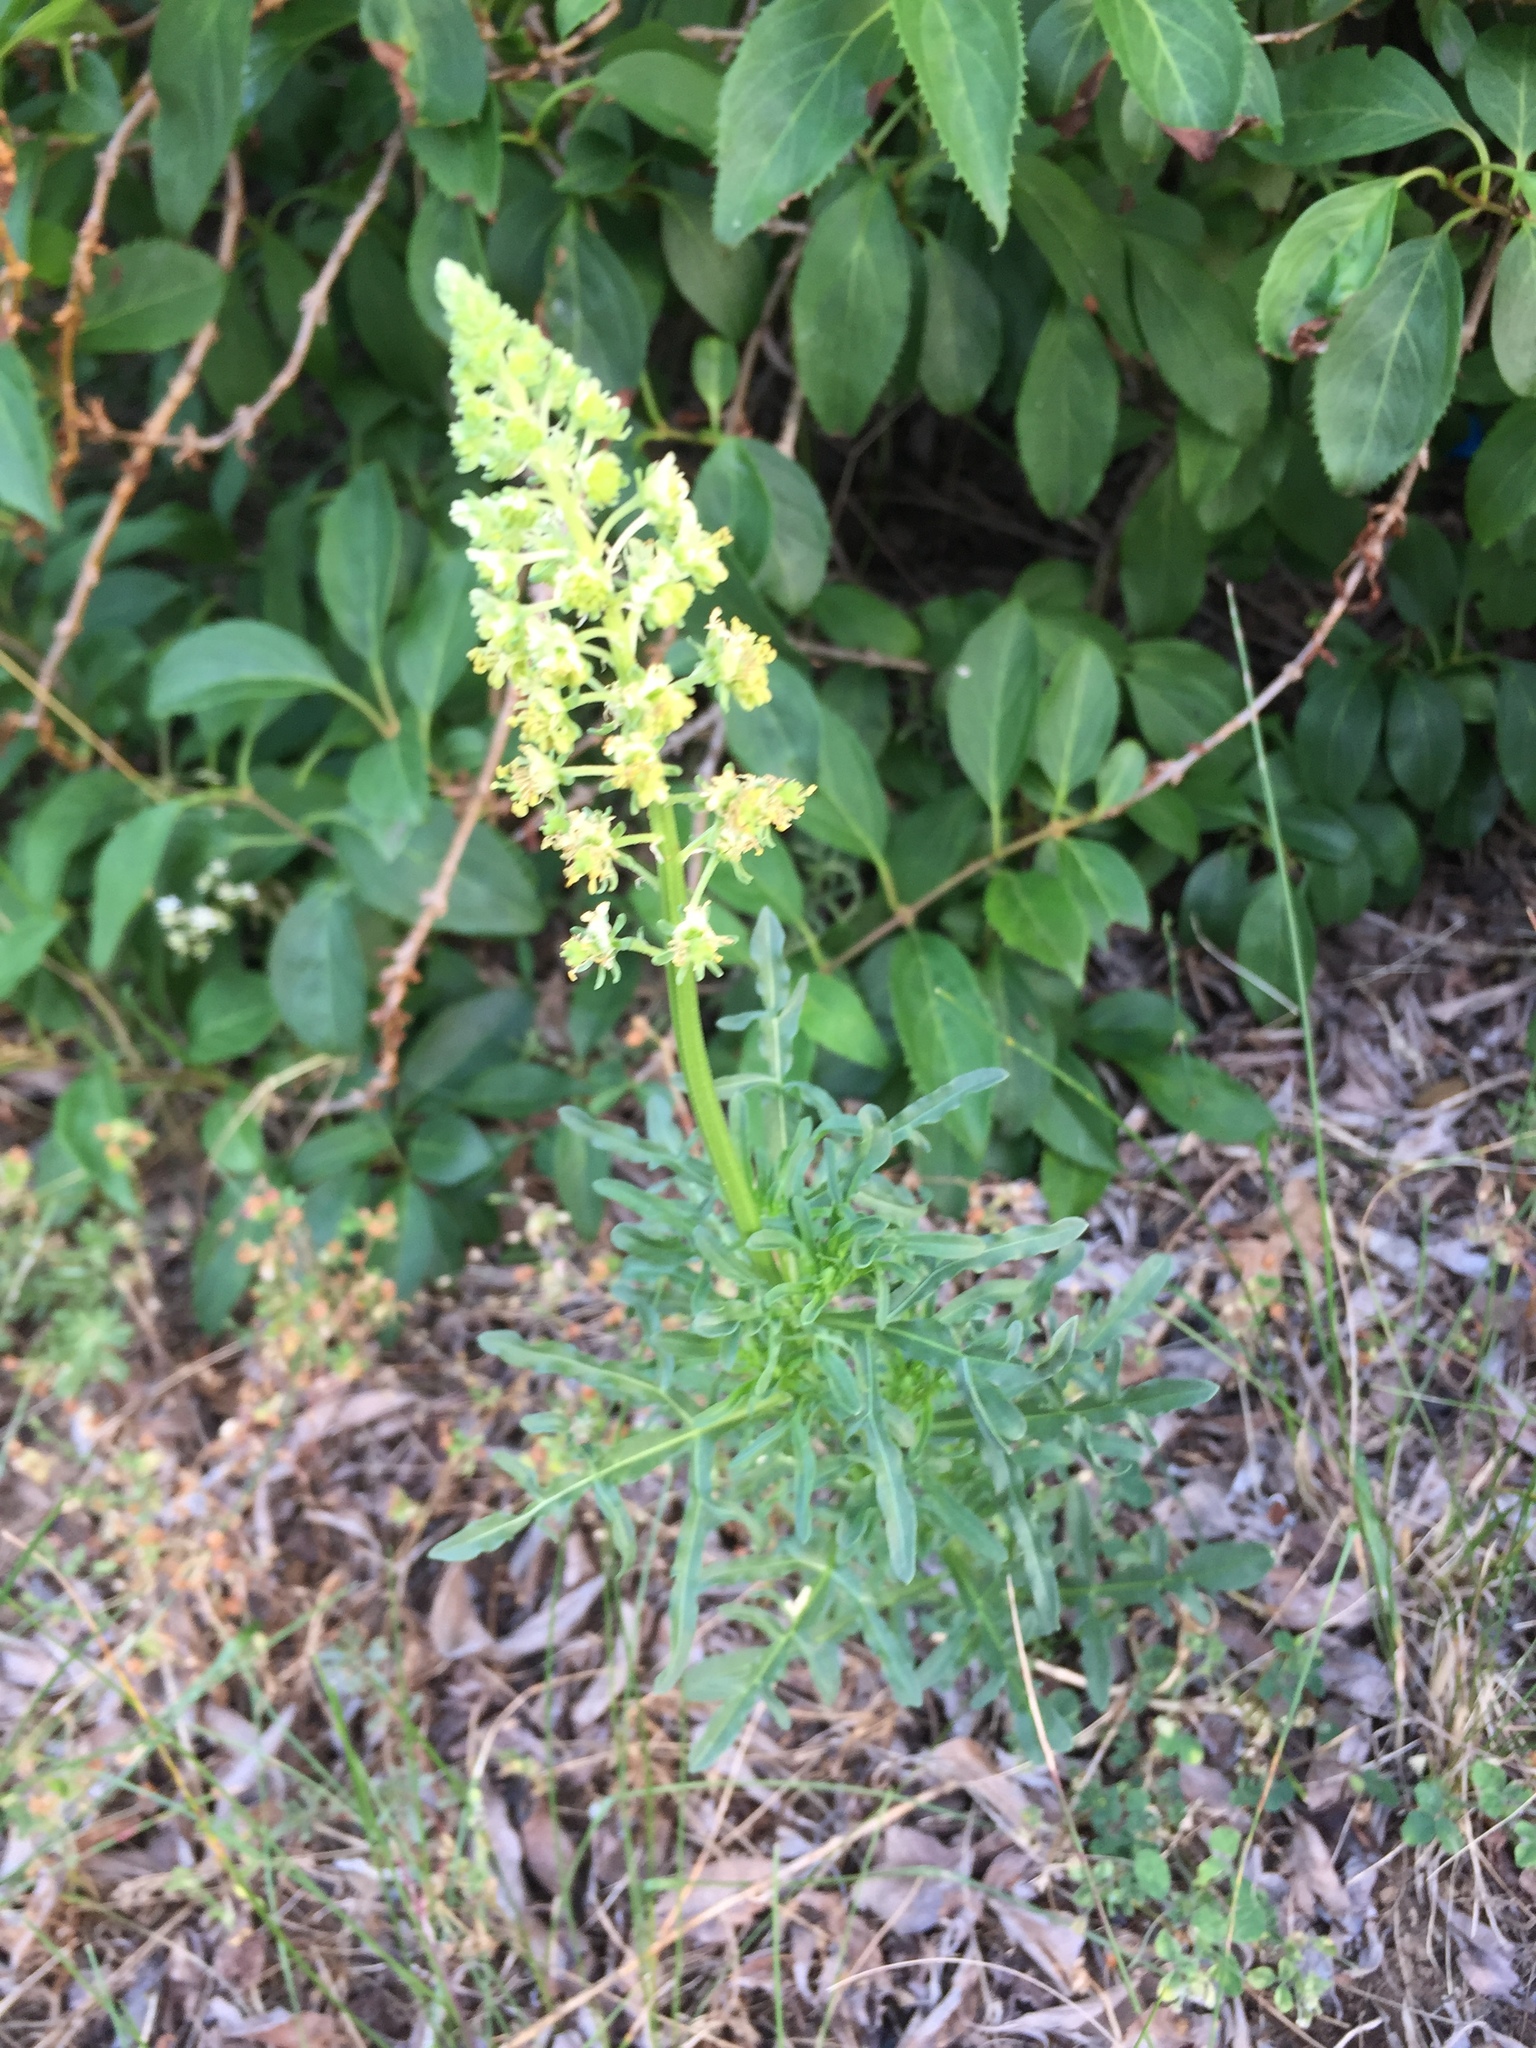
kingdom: Plantae
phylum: Tracheophyta
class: Magnoliopsida
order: Brassicales
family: Resedaceae
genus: Reseda
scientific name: Reseda lutea
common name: Wild mignonette
